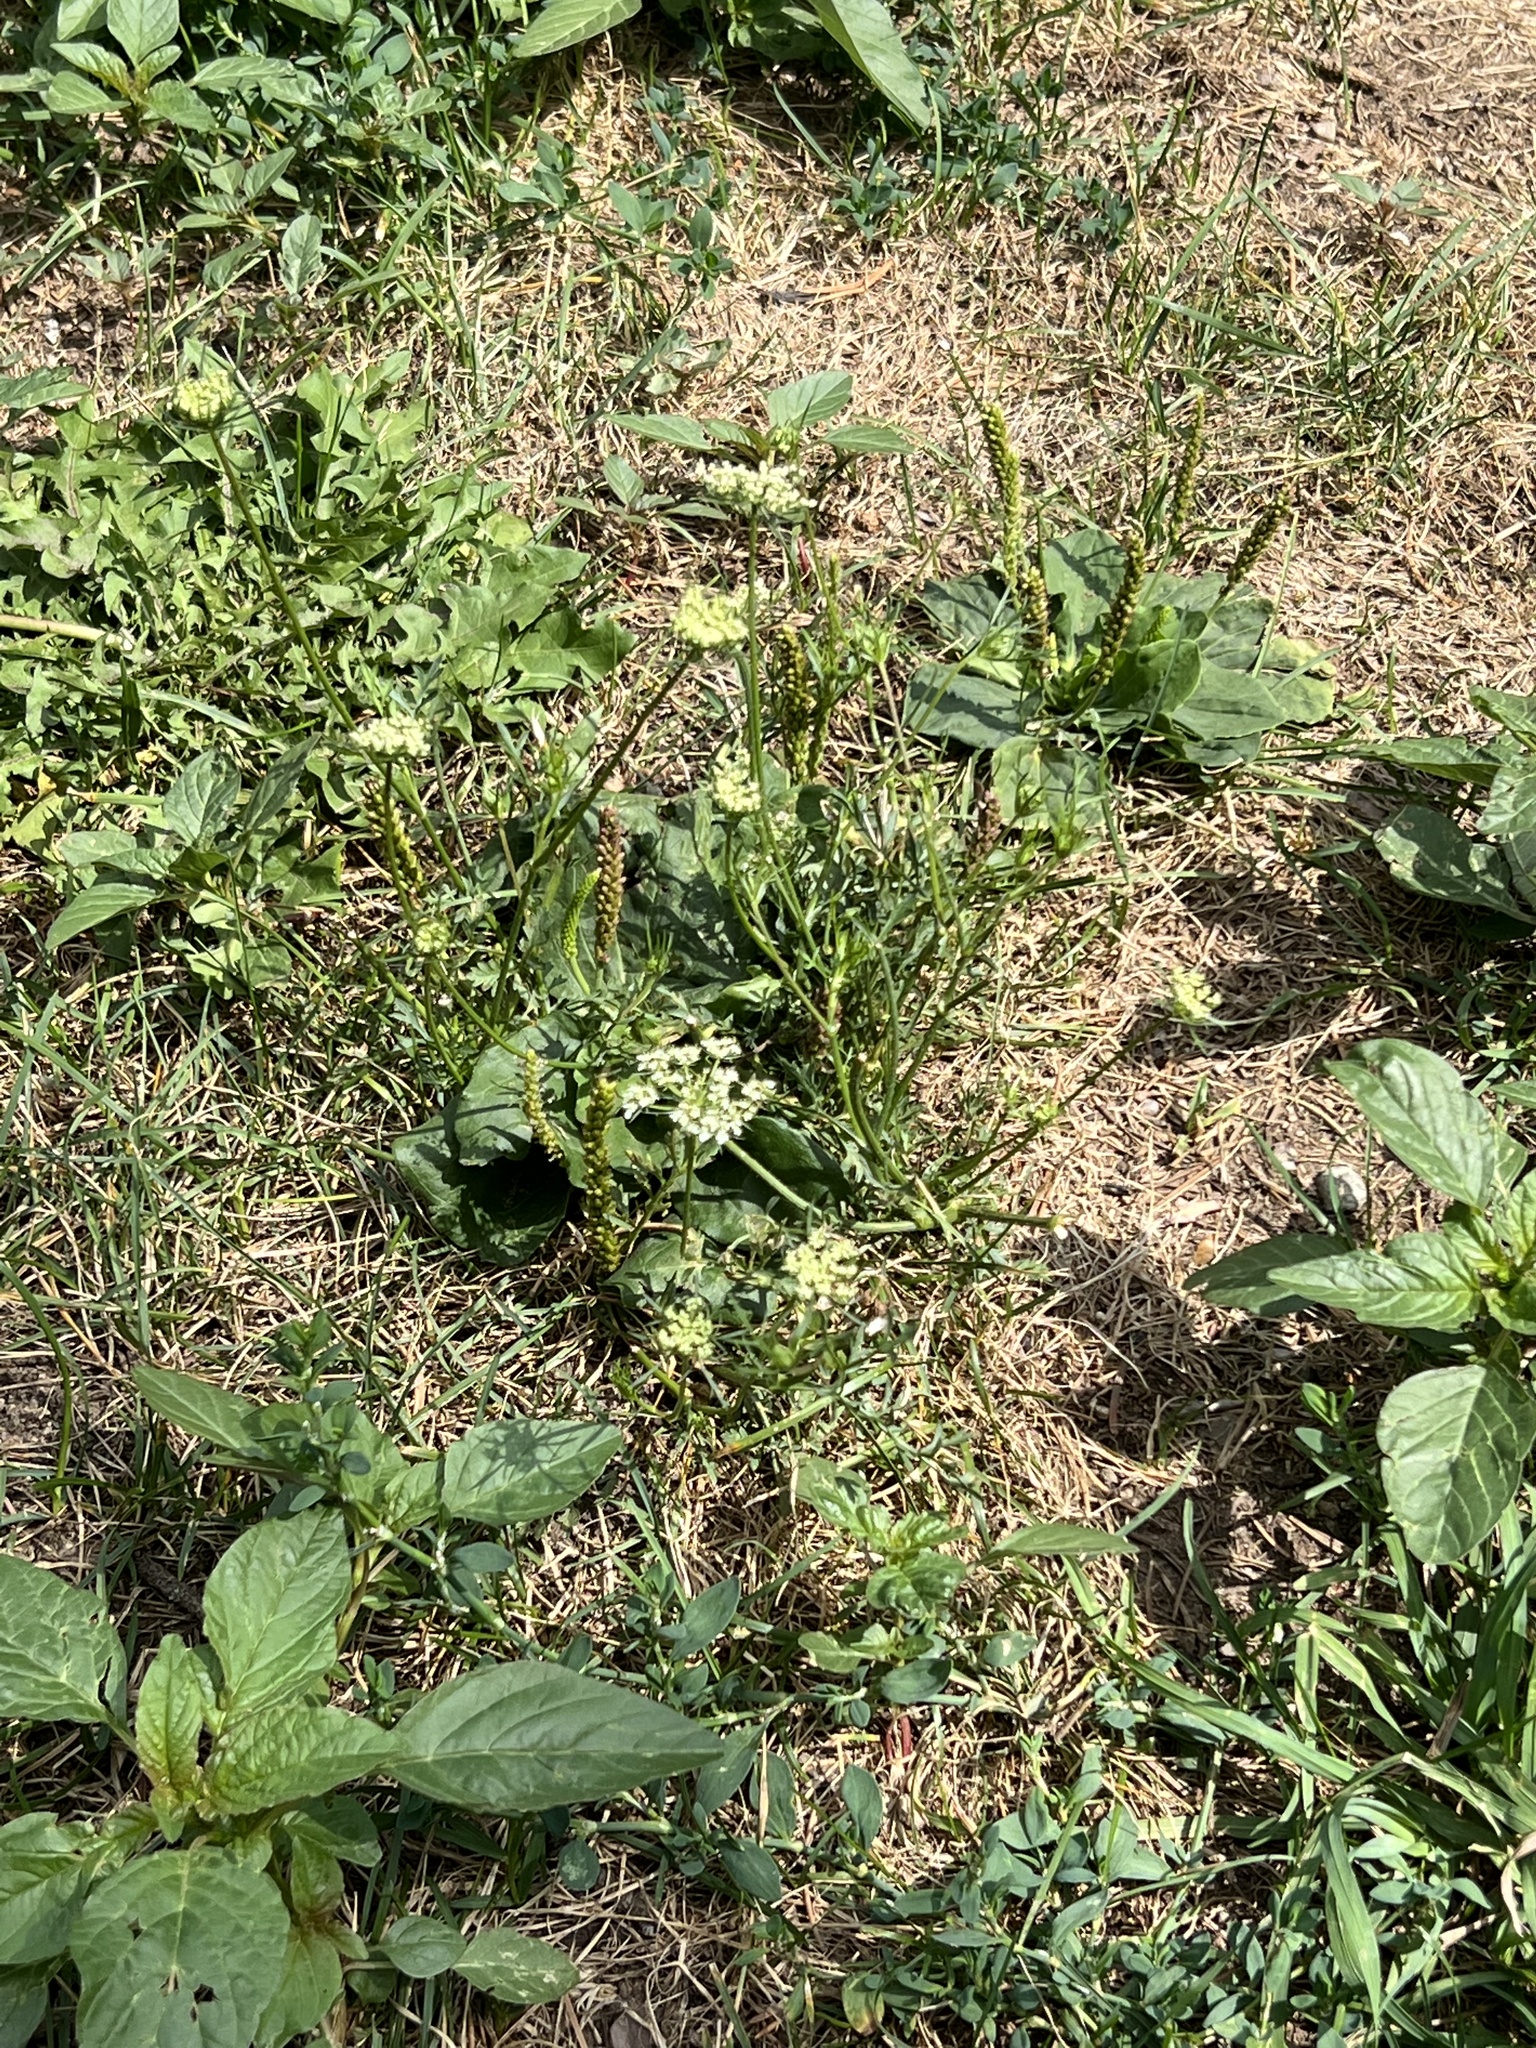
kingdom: Plantae
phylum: Tracheophyta
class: Magnoliopsida
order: Apiales
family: Apiaceae
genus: Daucus
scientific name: Daucus carota
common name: Wild carrot
